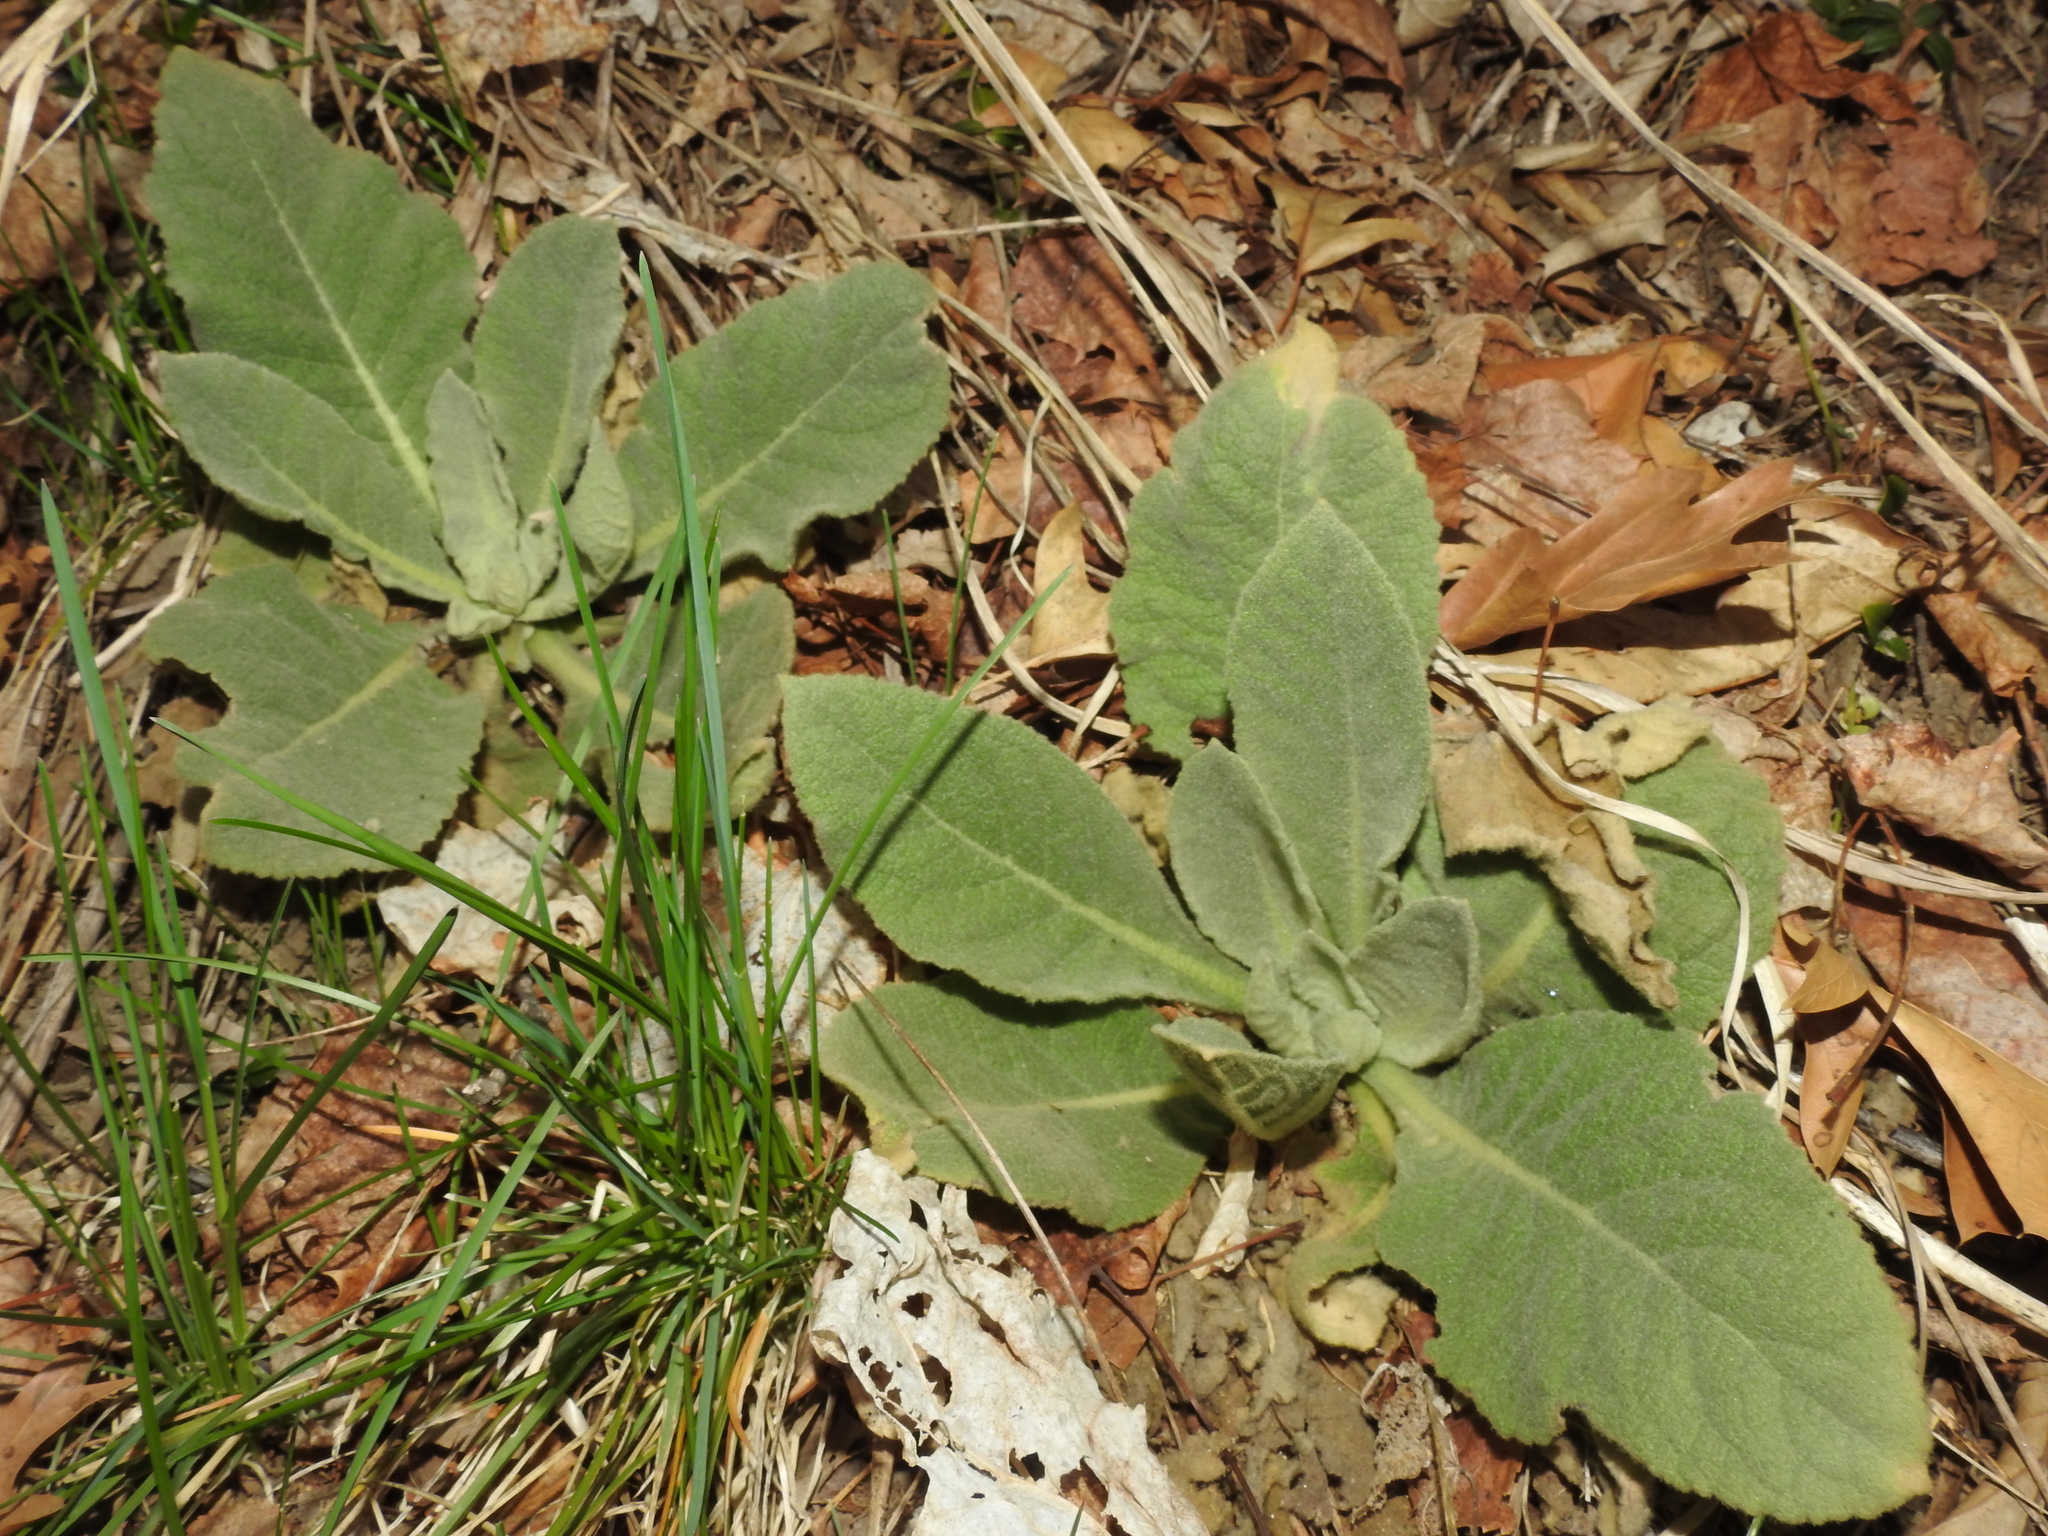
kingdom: Plantae
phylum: Tracheophyta
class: Magnoliopsida
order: Lamiales
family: Scrophulariaceae
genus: Verbascum
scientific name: Verbascum thapsus
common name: Common mullein
